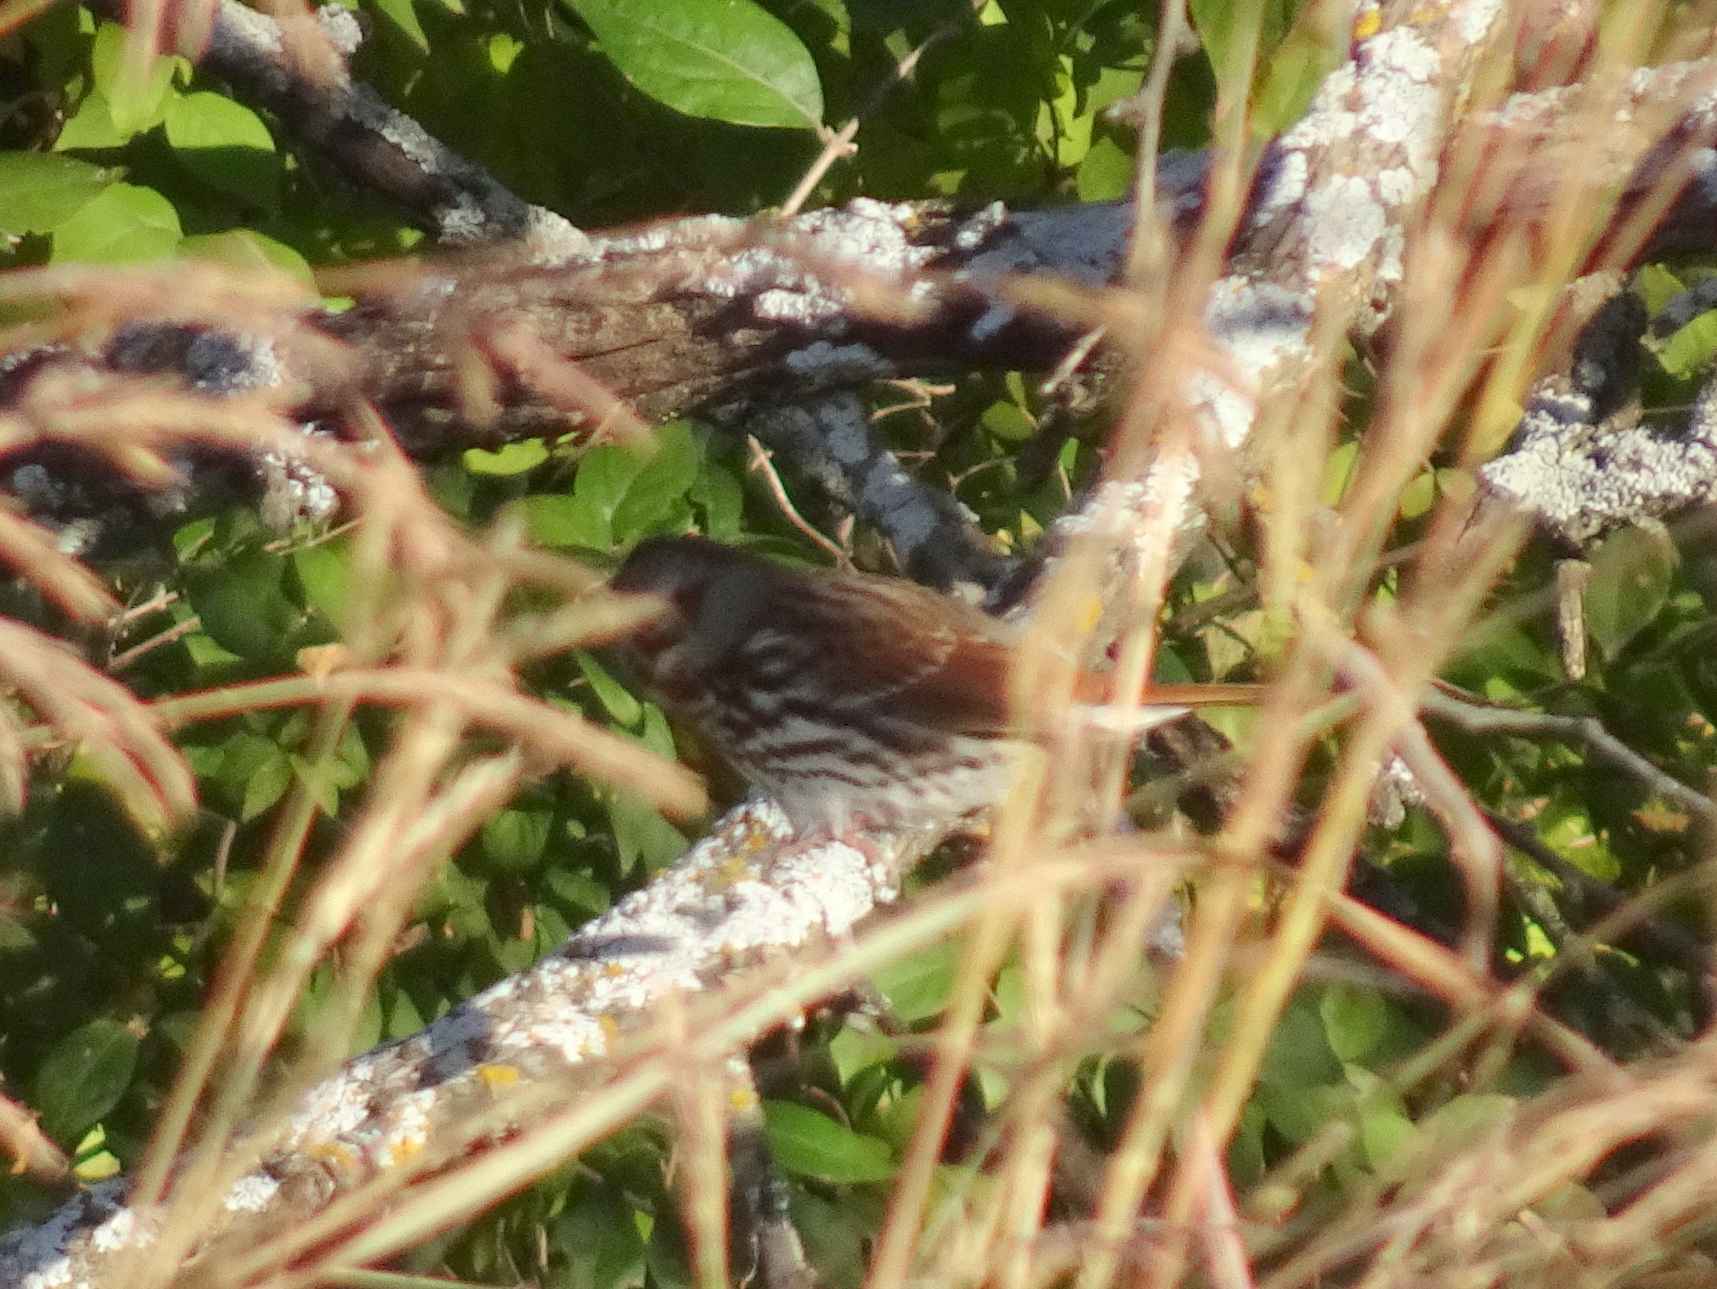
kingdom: Animalia
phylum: Chordata
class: Aves
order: Passeriformes
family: Passerellidae
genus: Passerella
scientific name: Passerella iliaca
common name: Fox sparrow
